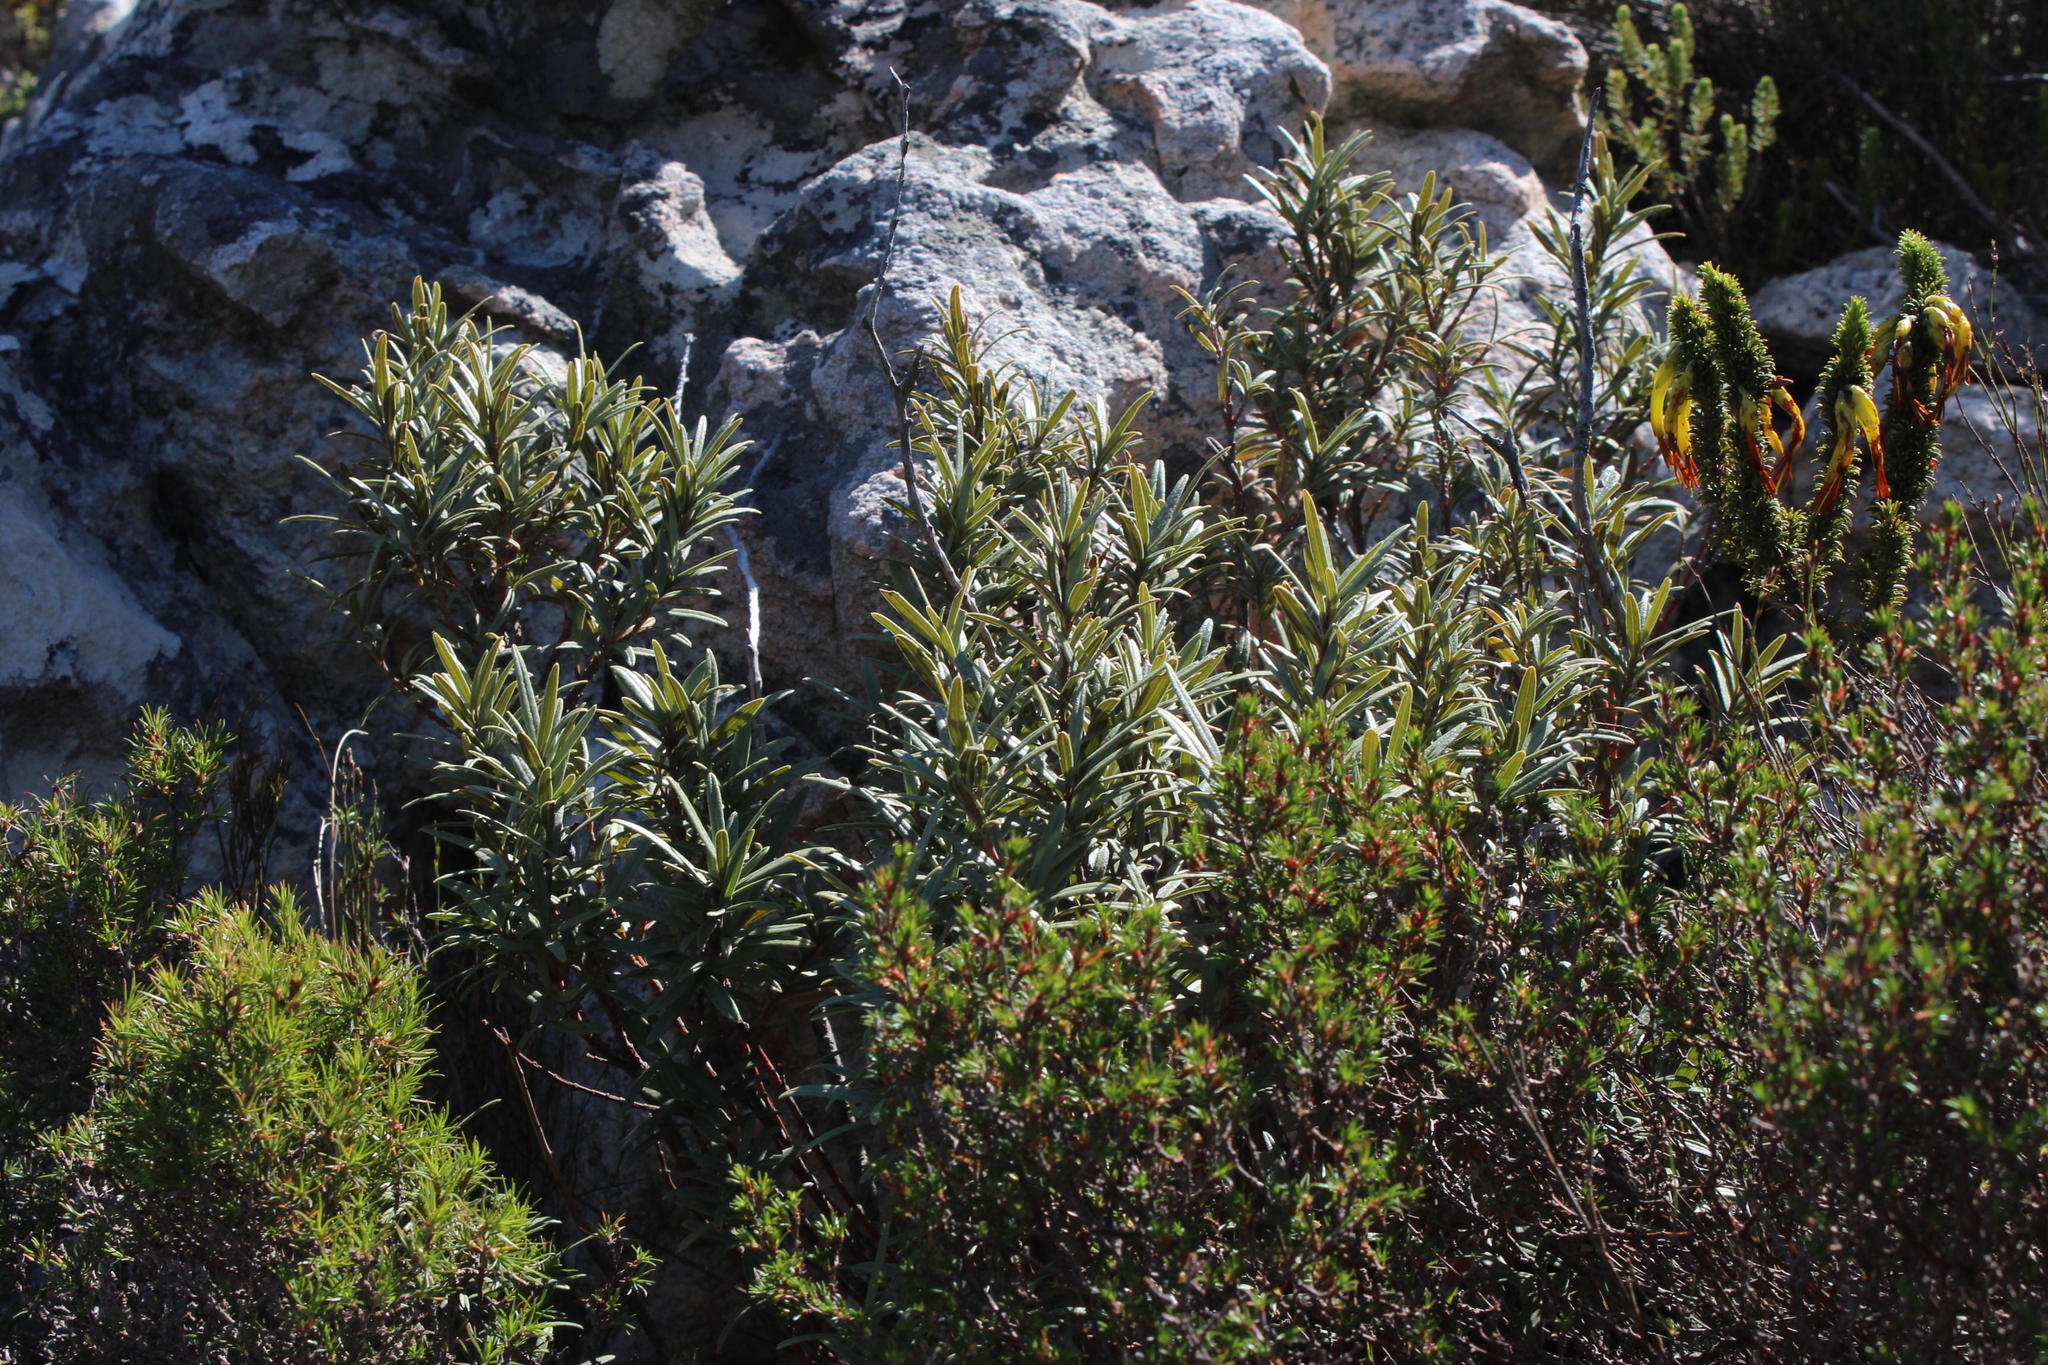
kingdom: Plantae
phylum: Tracheophyta
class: Magnoliopsida
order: Cornales
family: Grubbiaceae
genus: Grubbia
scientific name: Grubbia tomentosa
